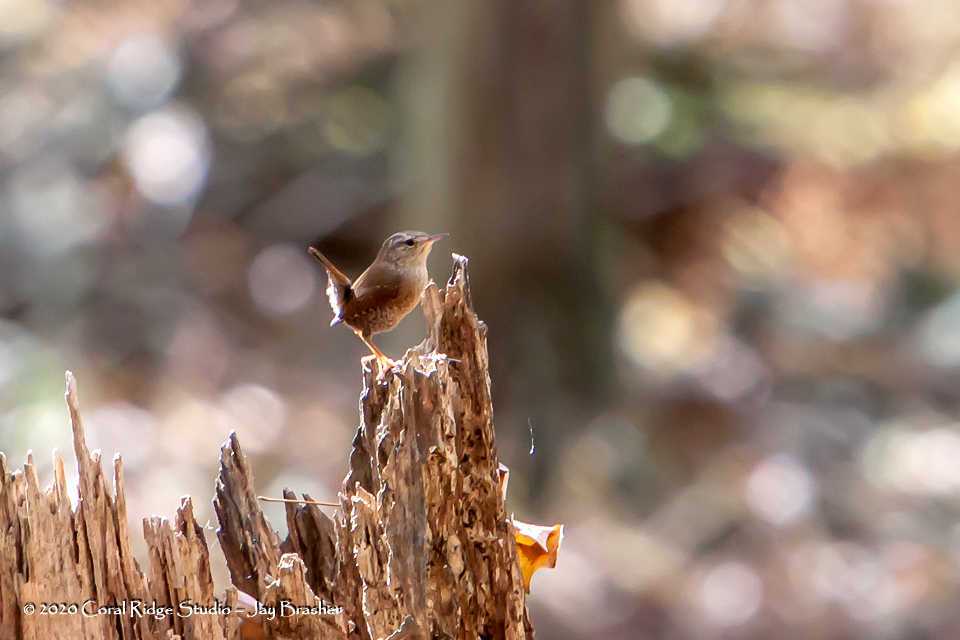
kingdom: Animalia
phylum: Chordata
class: Aves
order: Passeriformes
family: Troglodytidae
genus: Troglodytes
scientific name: Troglodytes aedon
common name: House wren
